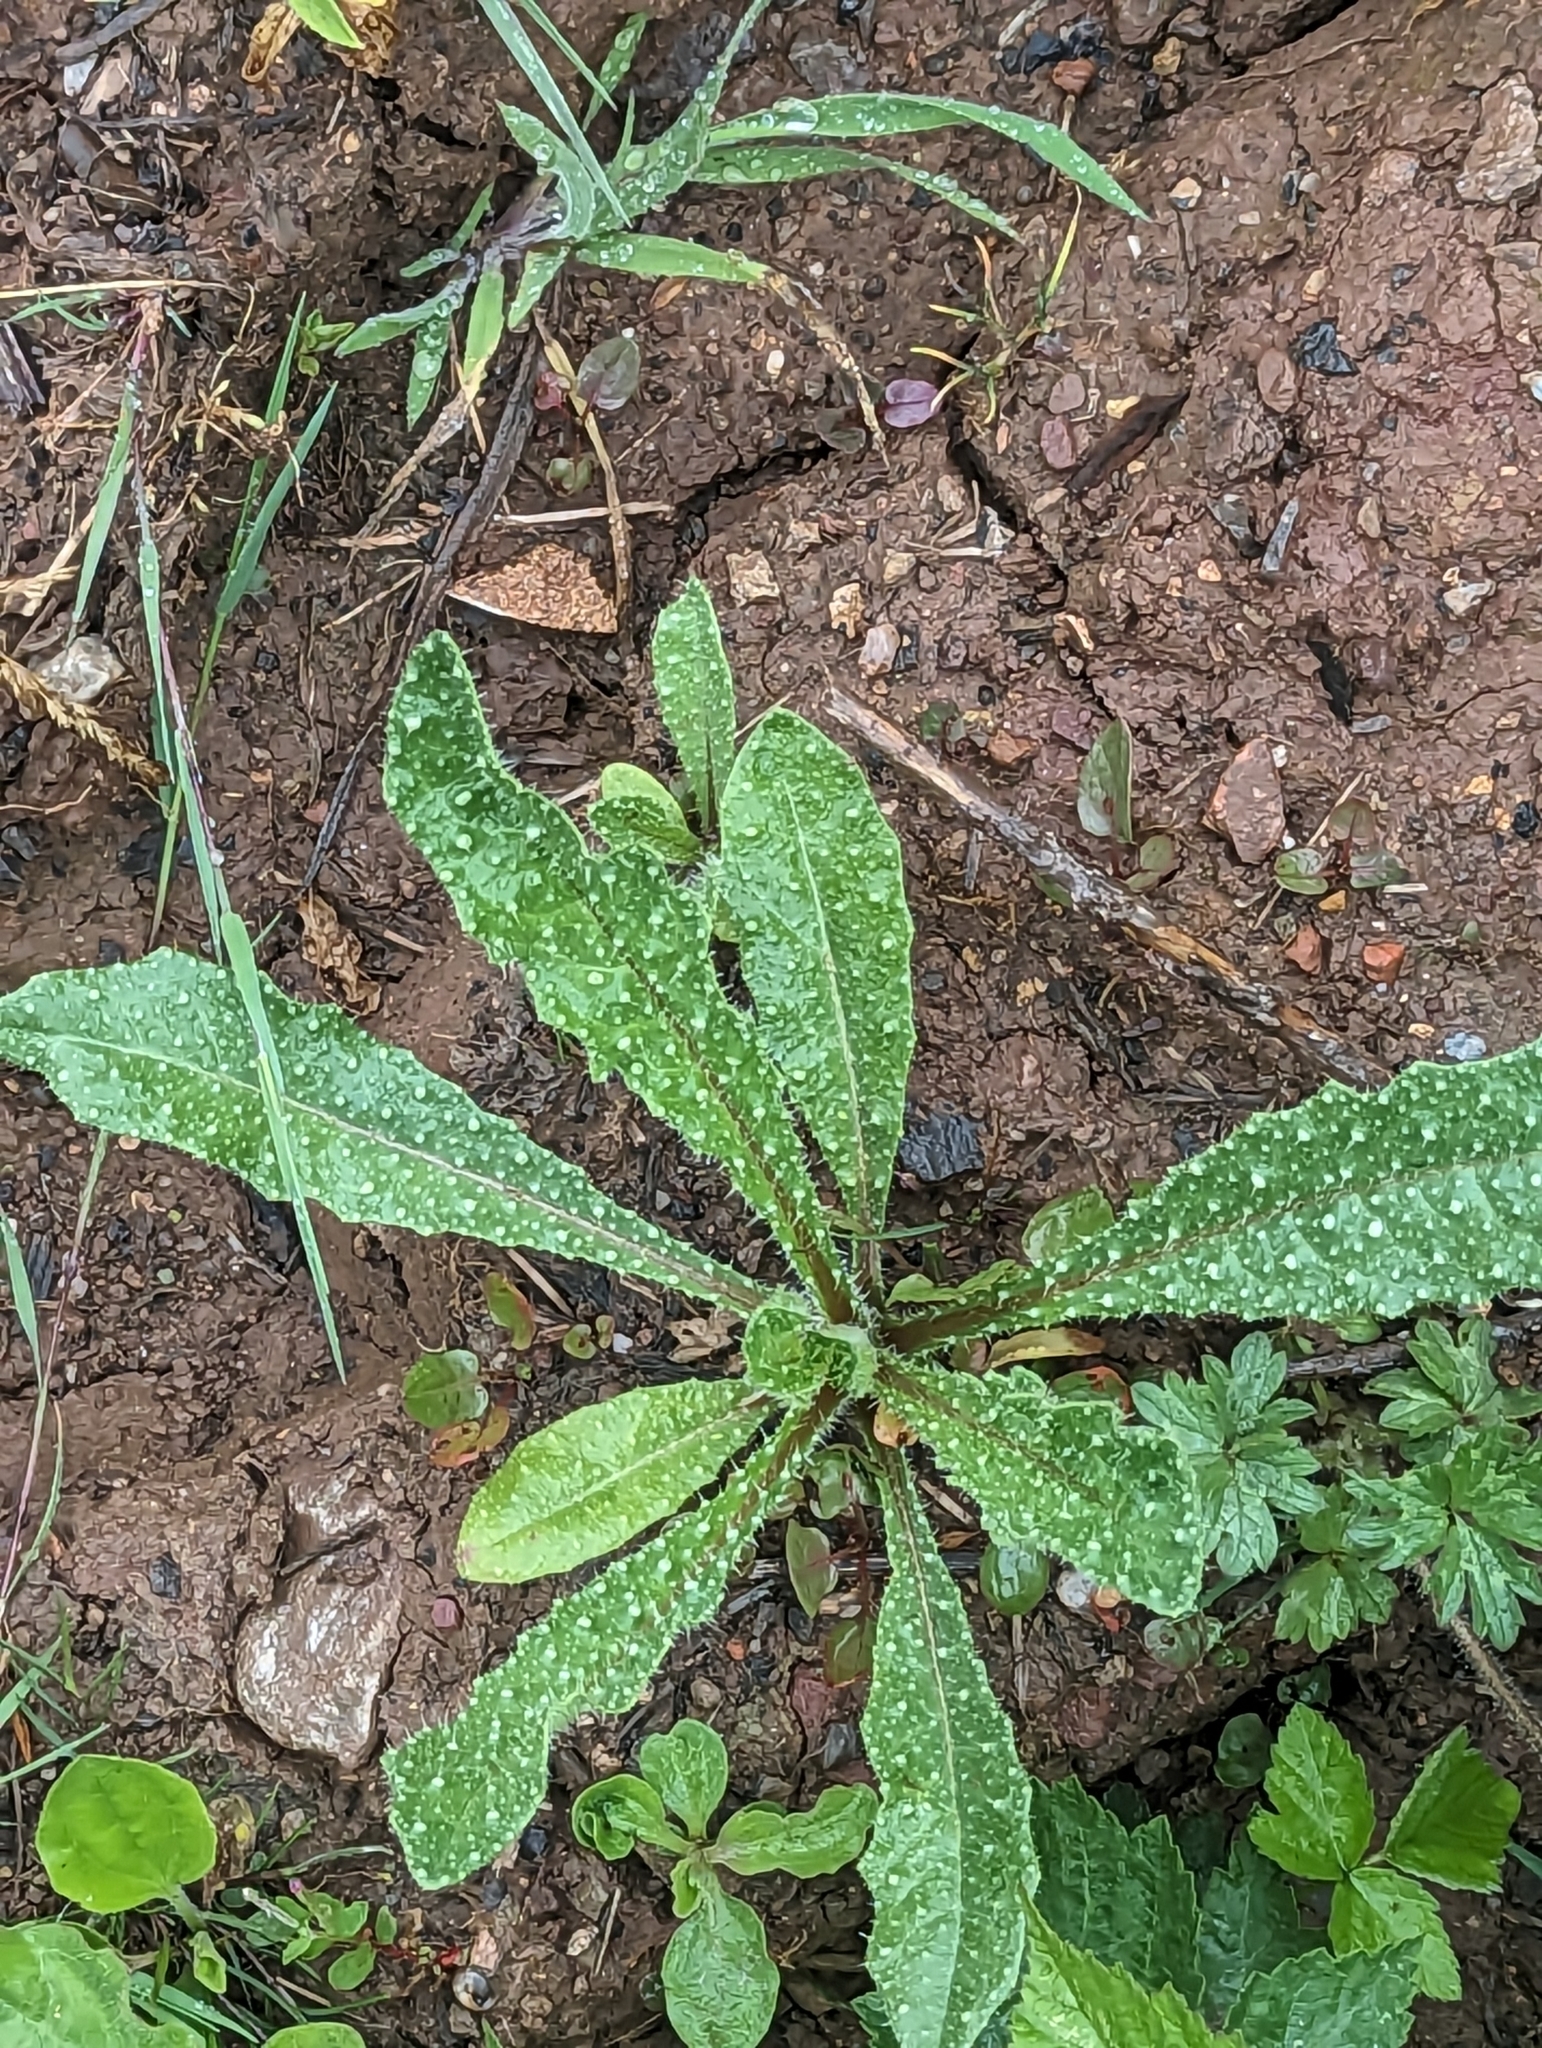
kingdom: Plantae
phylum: Tracheophyta
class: Magnoliopsida
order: Asterales
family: Asteraceae
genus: Helminthotheca
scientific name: Helminthotheca echioides
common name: Ox-tongue
